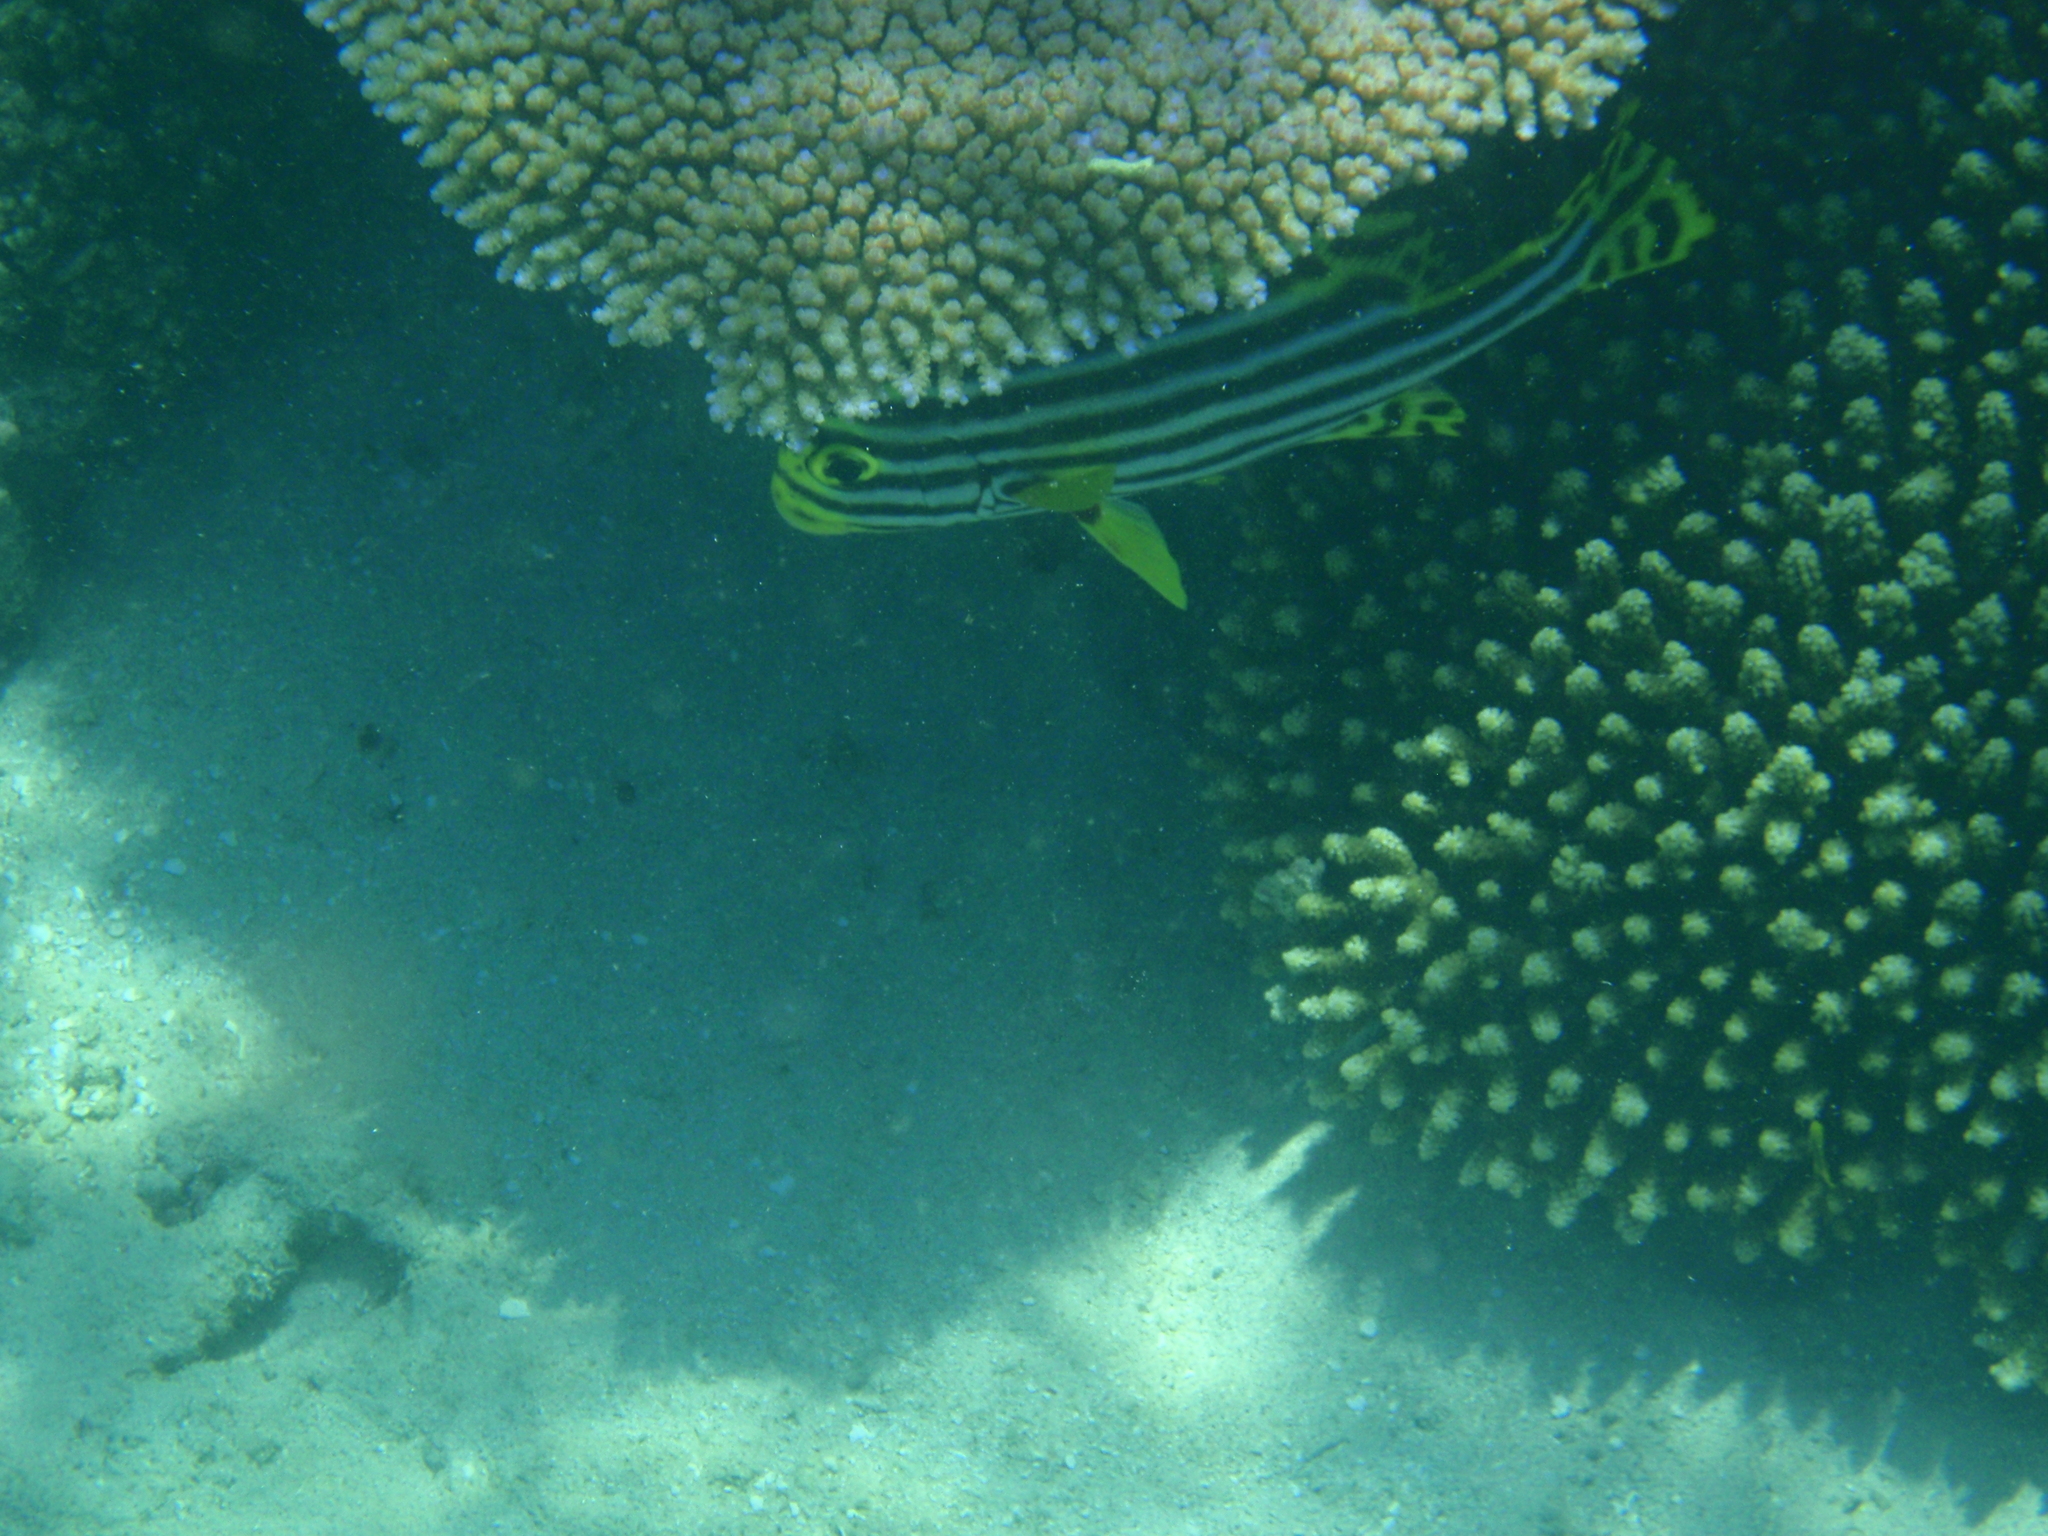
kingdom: Animalia
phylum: Chordata
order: Perciformes
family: Haemulidae
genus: Plectorhinchus
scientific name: Plectorhinchus vittatus
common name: Oriental sweetlips
